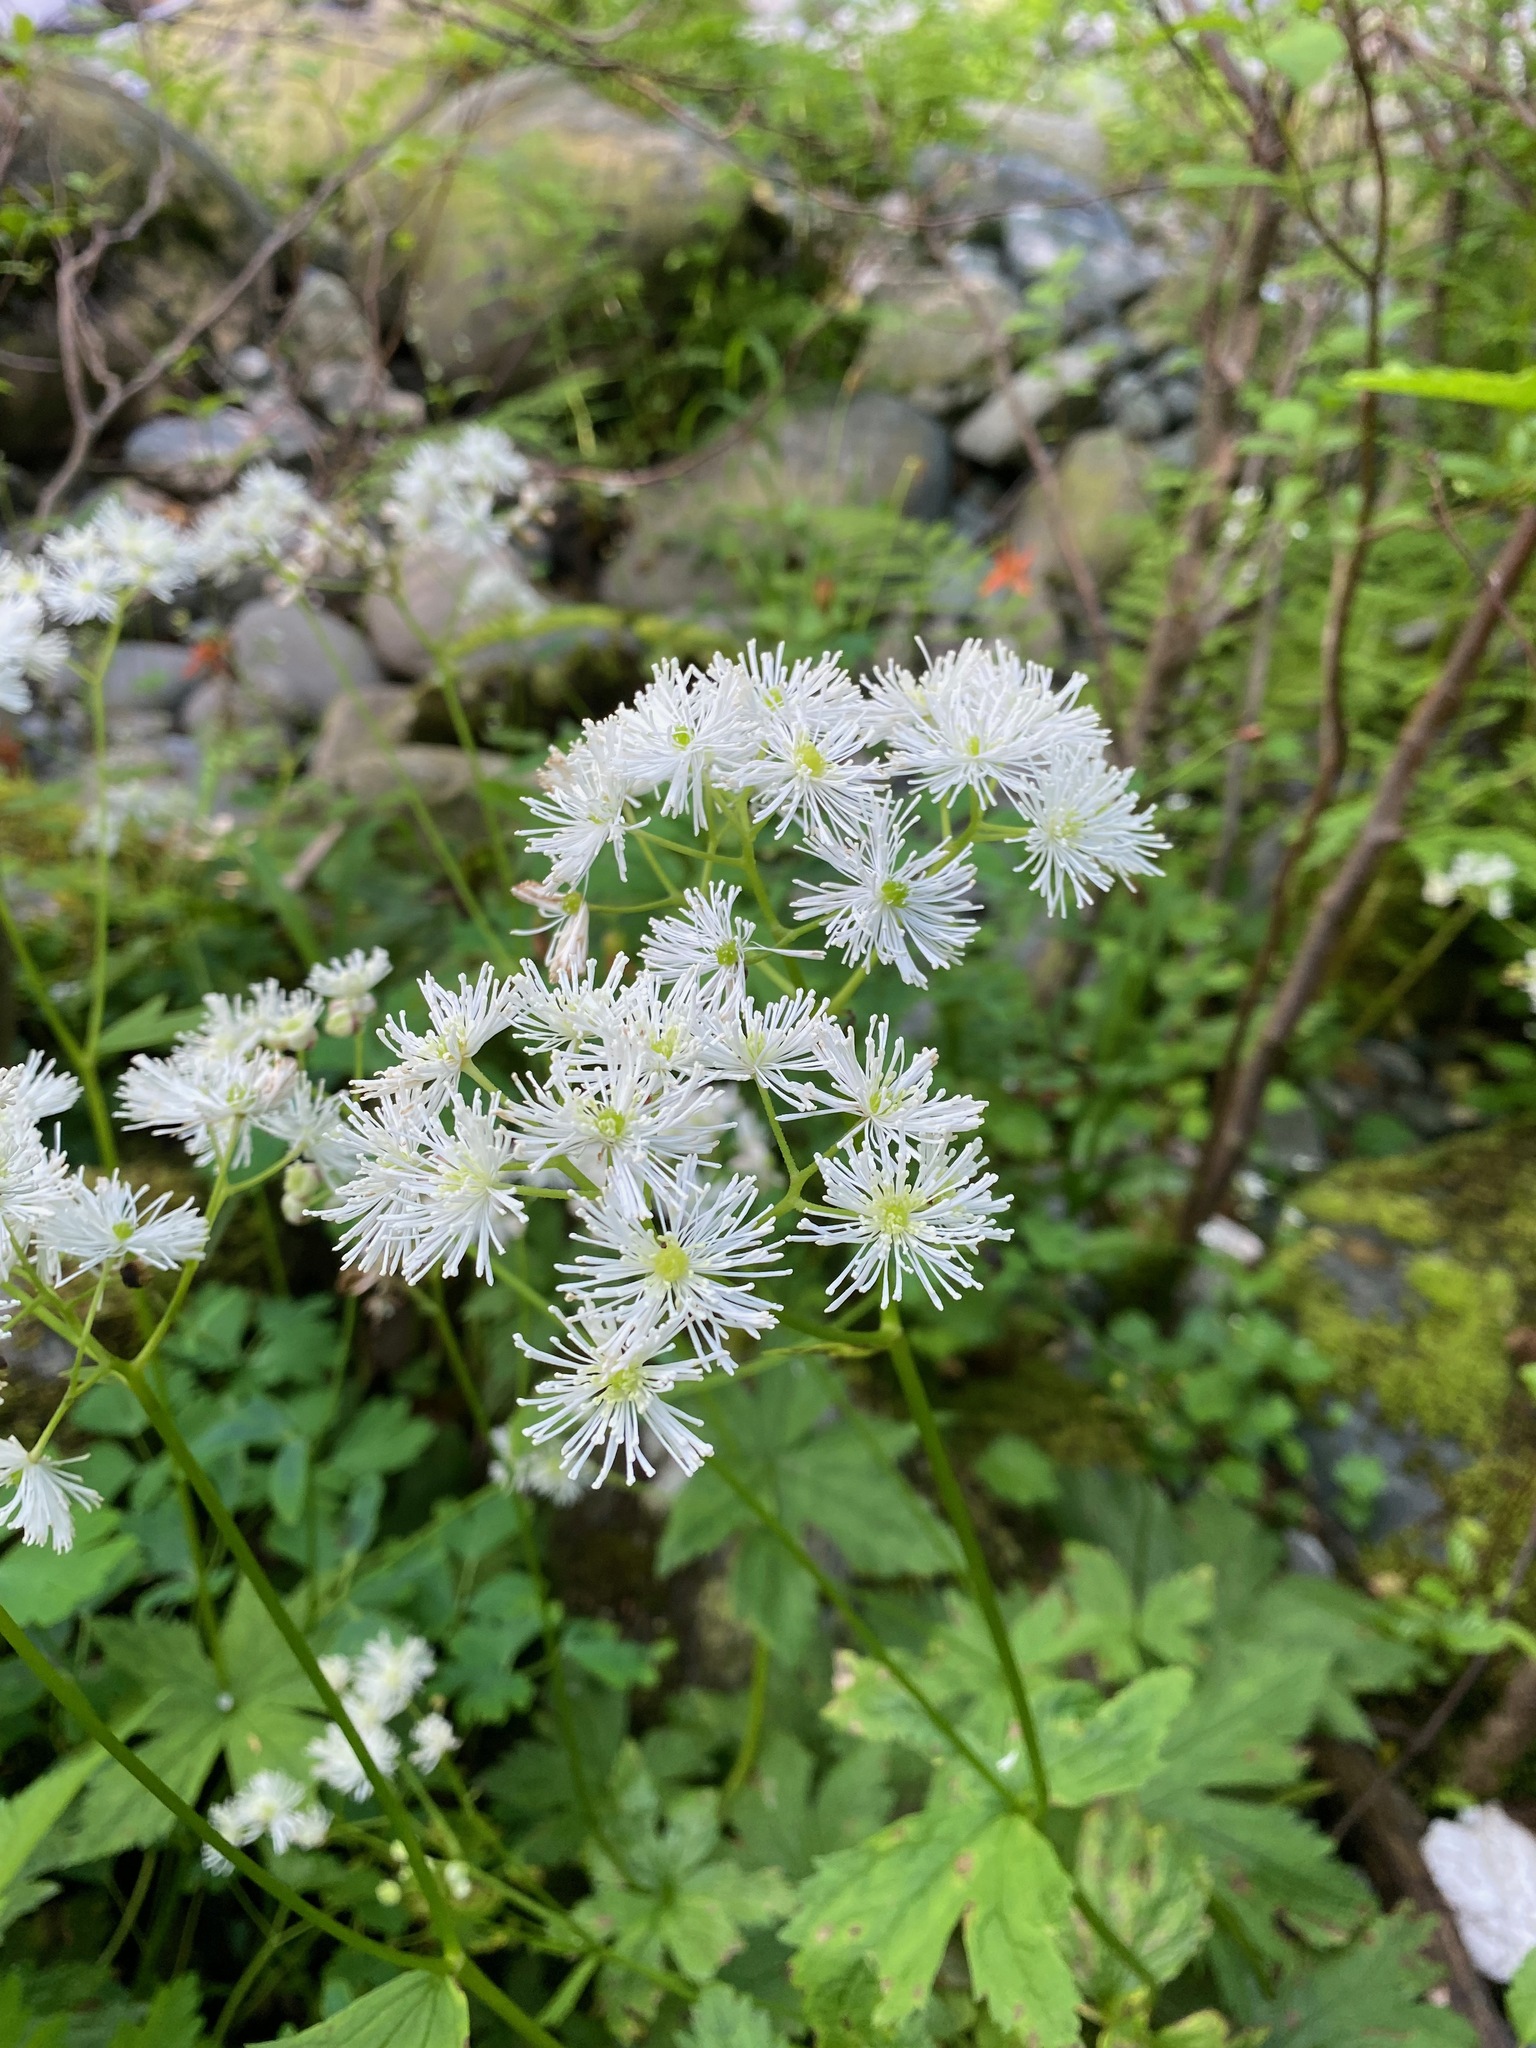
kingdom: Plantae
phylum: Tracheophyta
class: Magnoliopsida
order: Ranunculales
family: Ranunculaceae
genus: Trautvetteria
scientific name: Trautvetteria carolinensis
